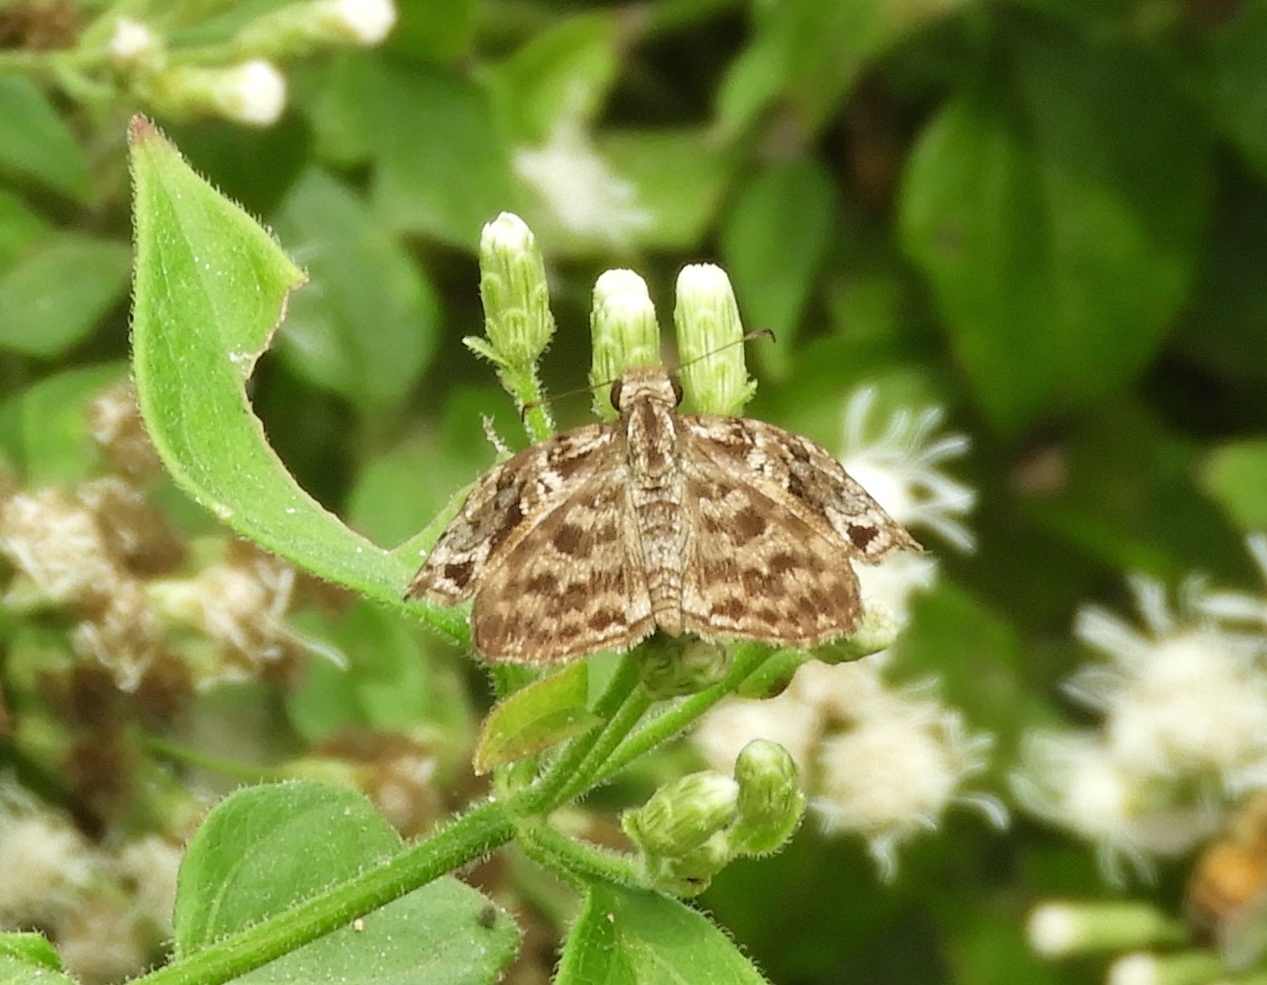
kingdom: Animalia
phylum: Arthropoda
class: Insecta
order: Lepidoptera
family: Hesperiidae
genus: Gorgythion
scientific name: Gorgythion begga
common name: Variegated skipper
